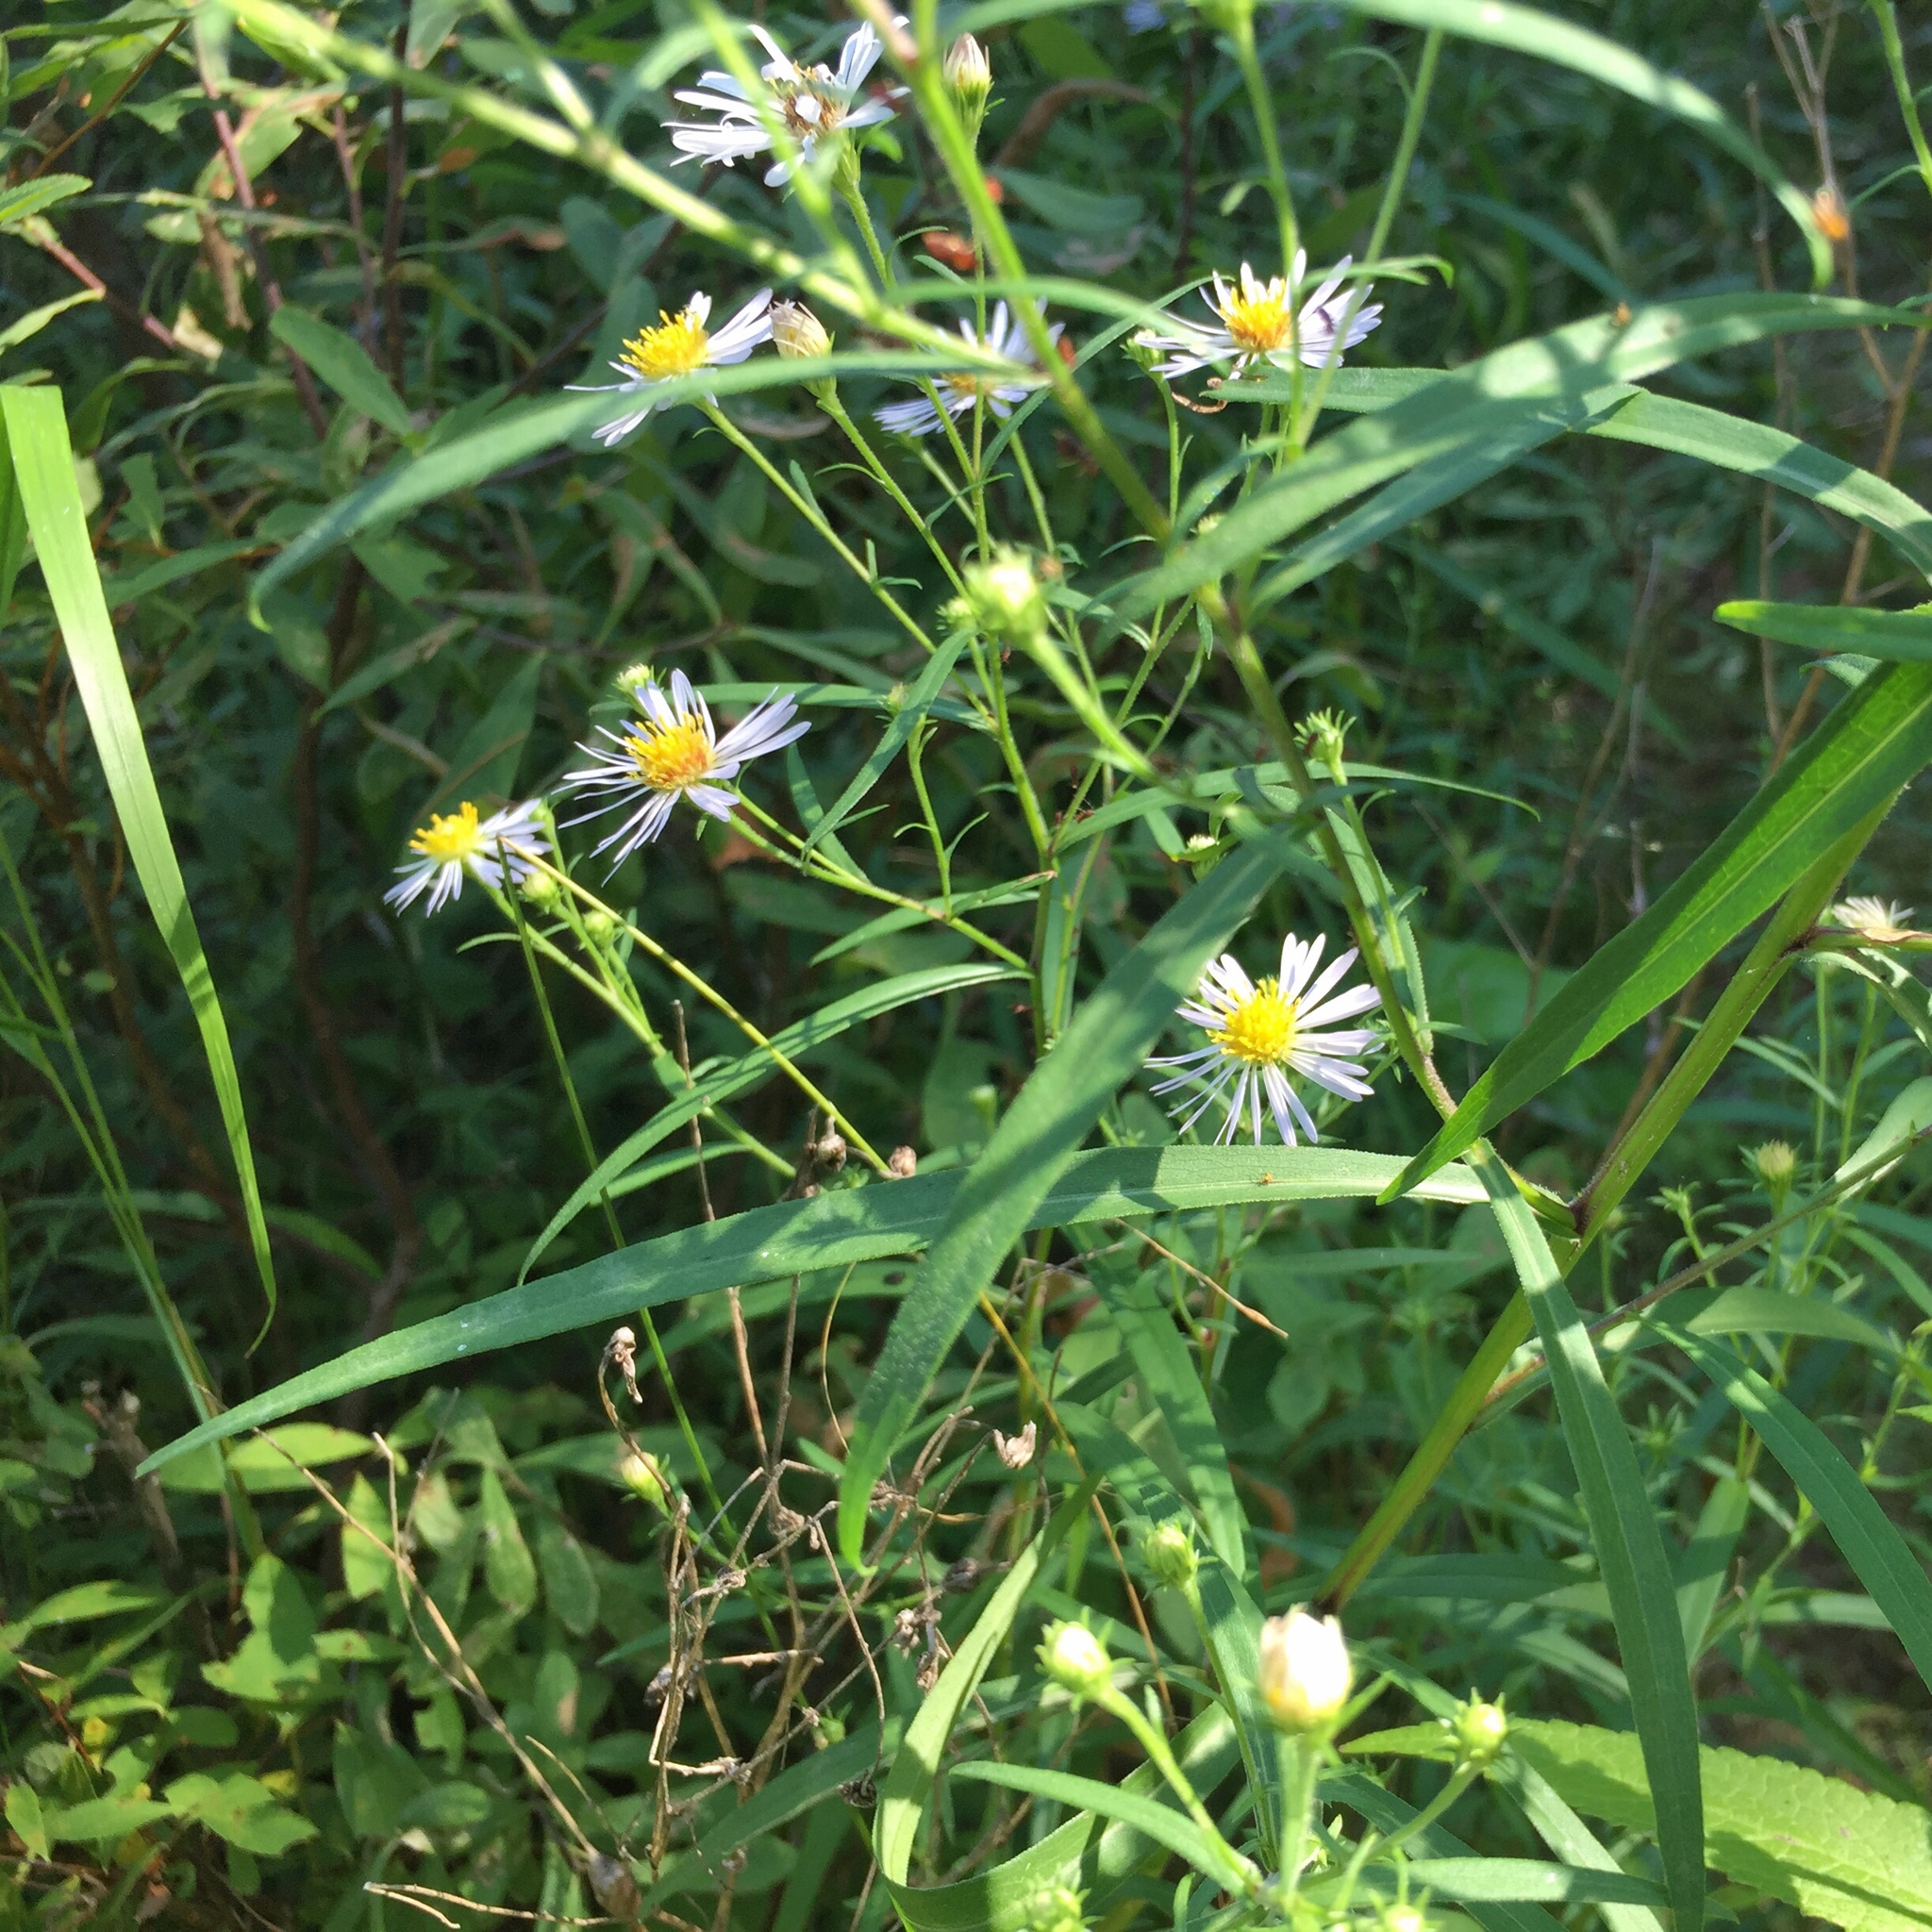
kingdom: Plantae
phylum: Tracheophyta
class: Magnoliopsida
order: Asterales
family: Asteraceae
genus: Symphyotrichum
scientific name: Symphyotrichum lanceolatum
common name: Panicled aster
